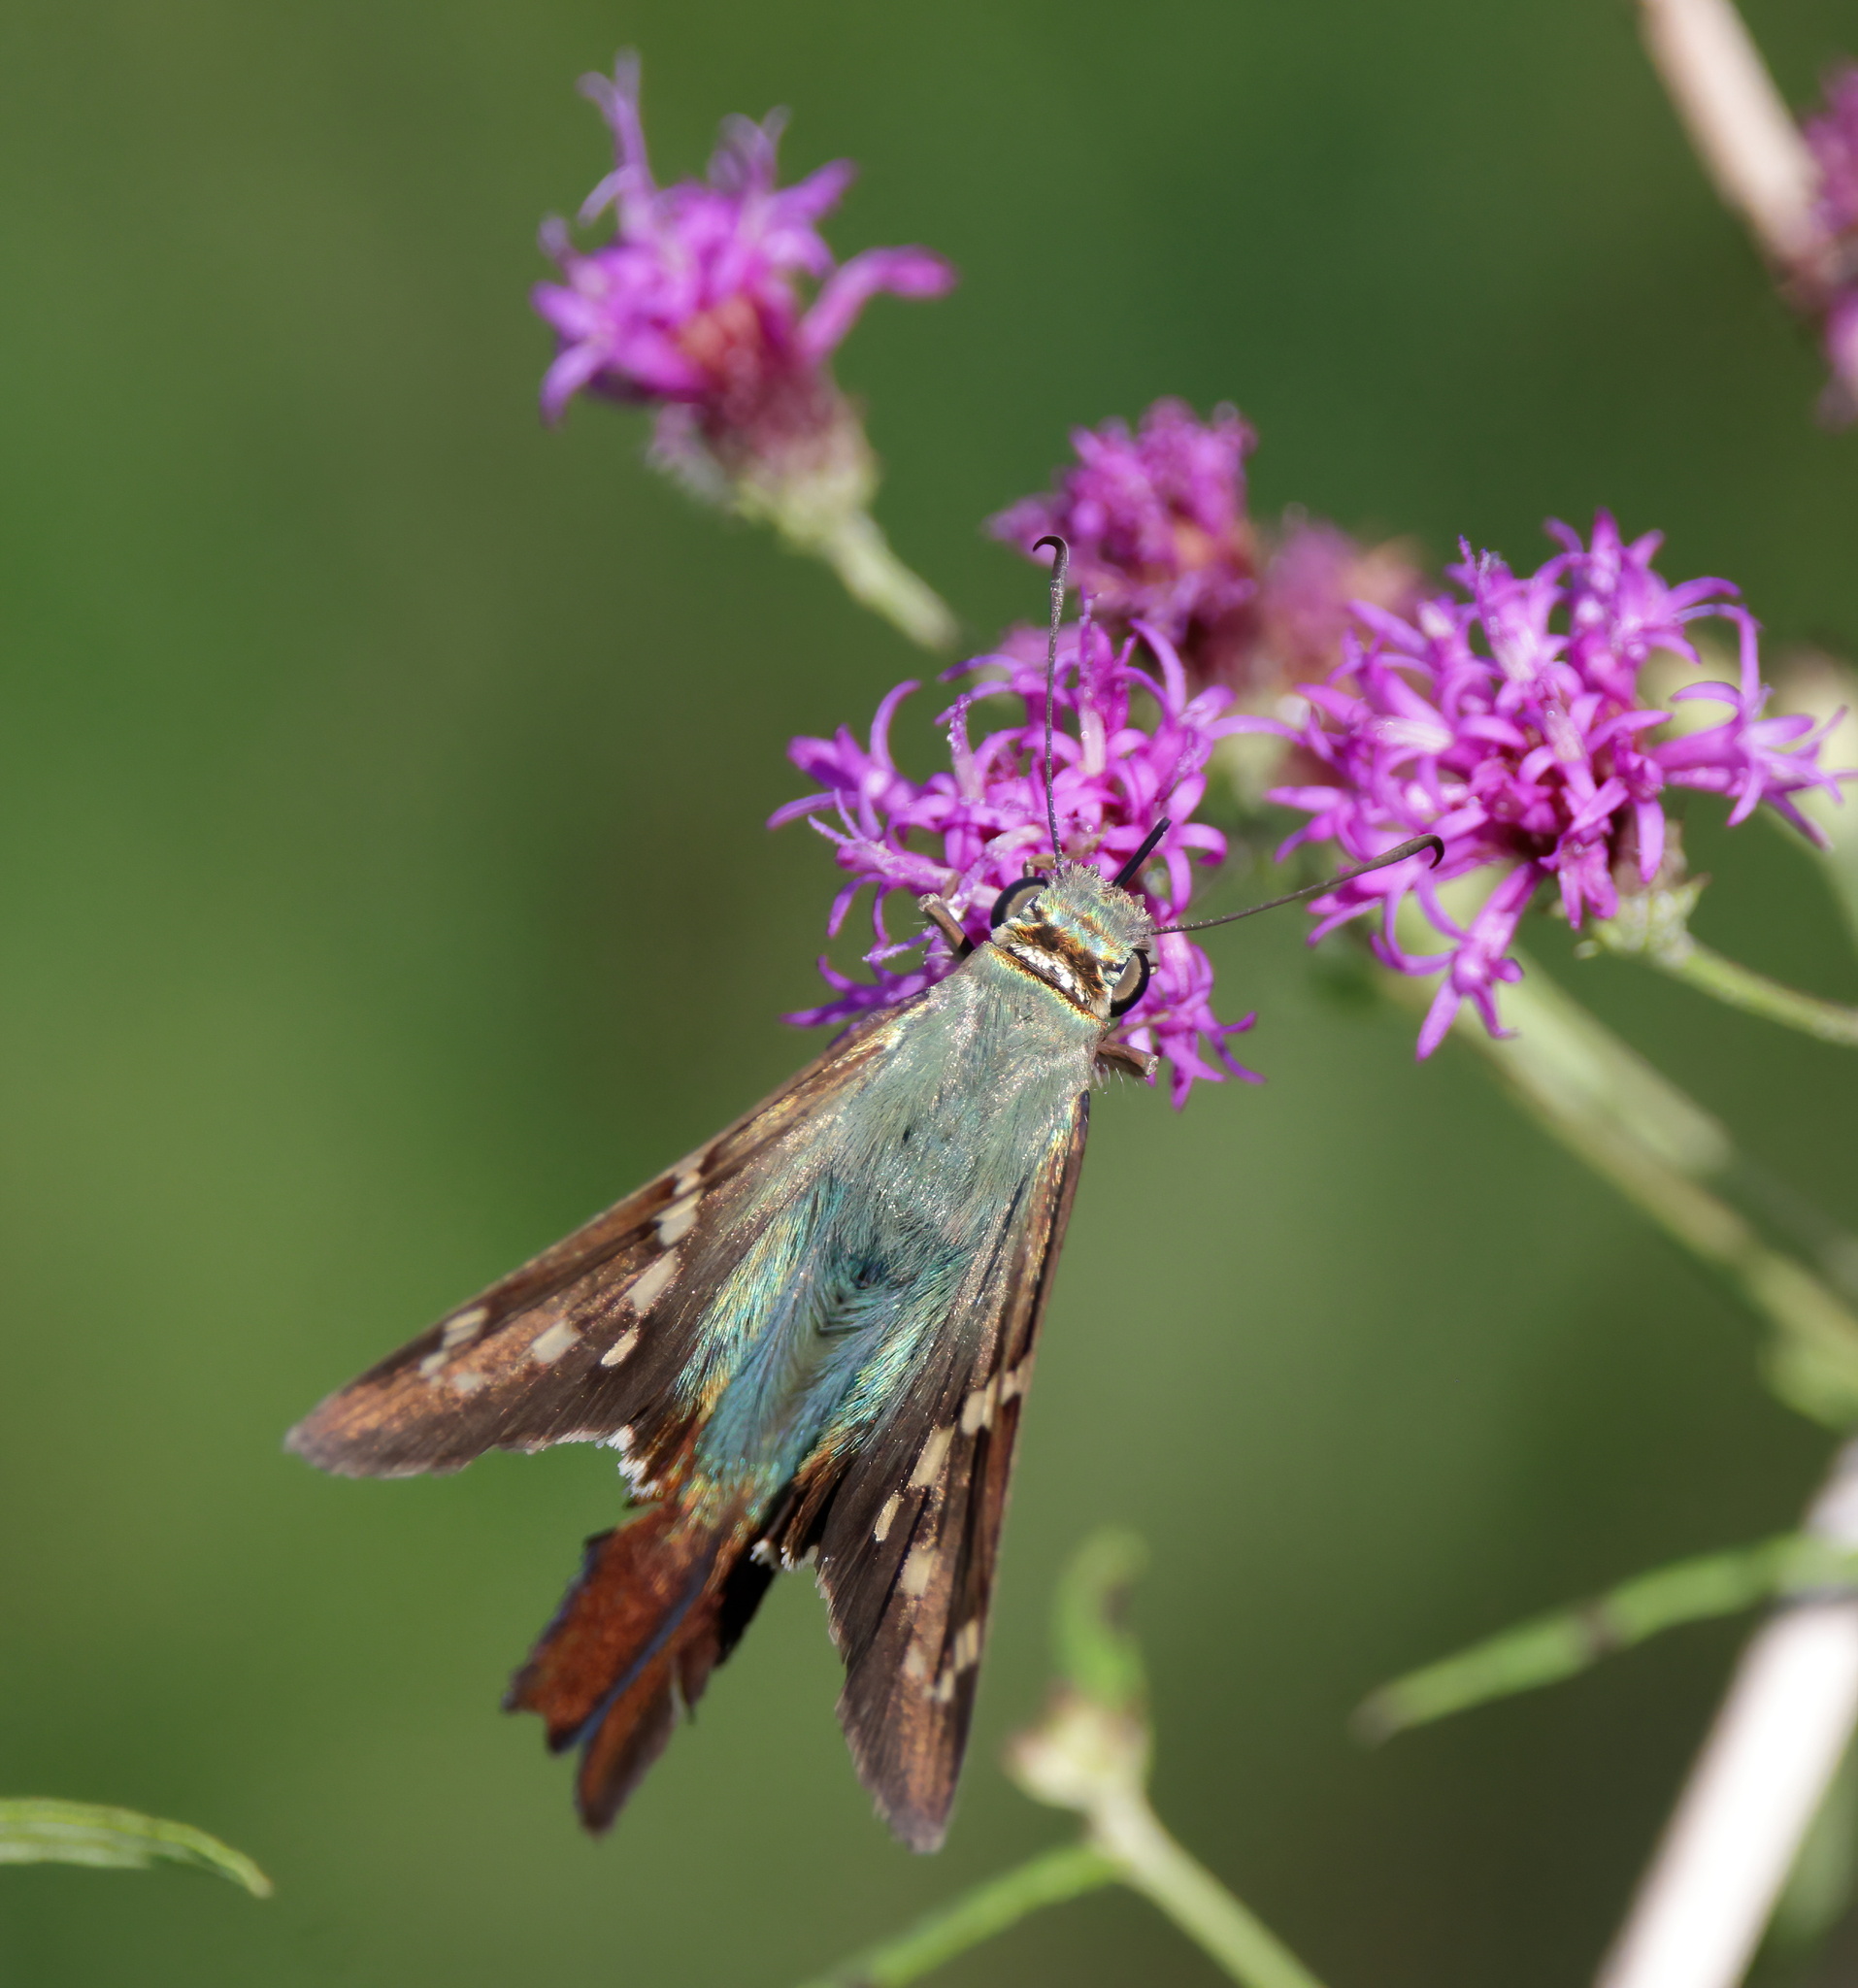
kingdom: Animalia
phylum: Arthropoda
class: Insecta
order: Lepidoptera
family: Hesperiidae
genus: Urbanus
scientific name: Urbanus proteus
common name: Long-tailed skipper
